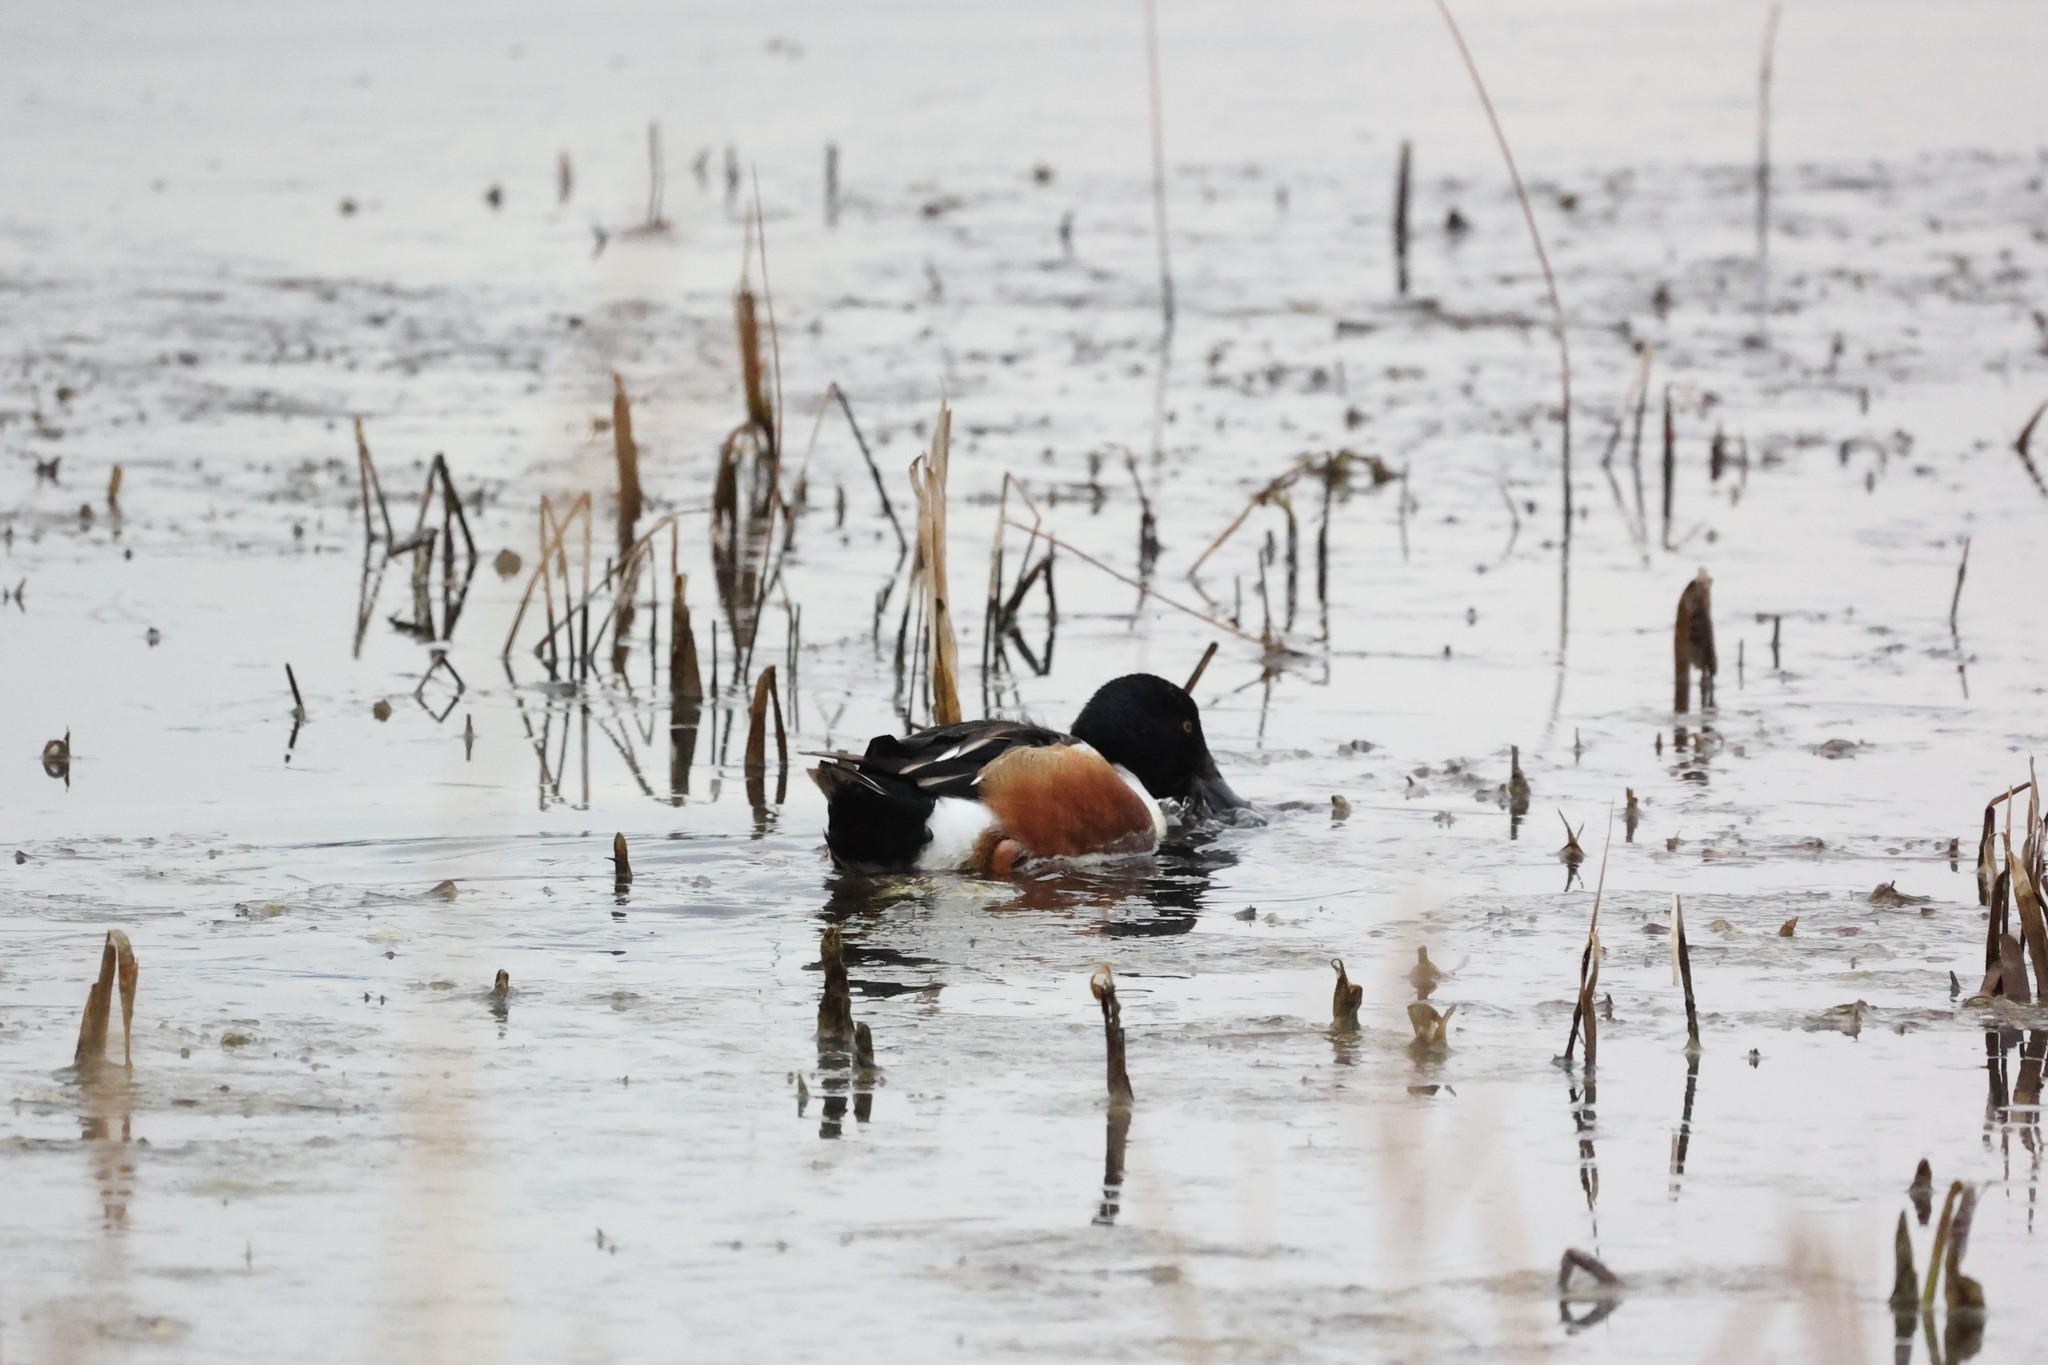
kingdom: Animalia
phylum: Chordata
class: Aves
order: Anseriformes
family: Anatidae
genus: Spatula
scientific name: Spatula clypeata
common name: Northern shoveler
